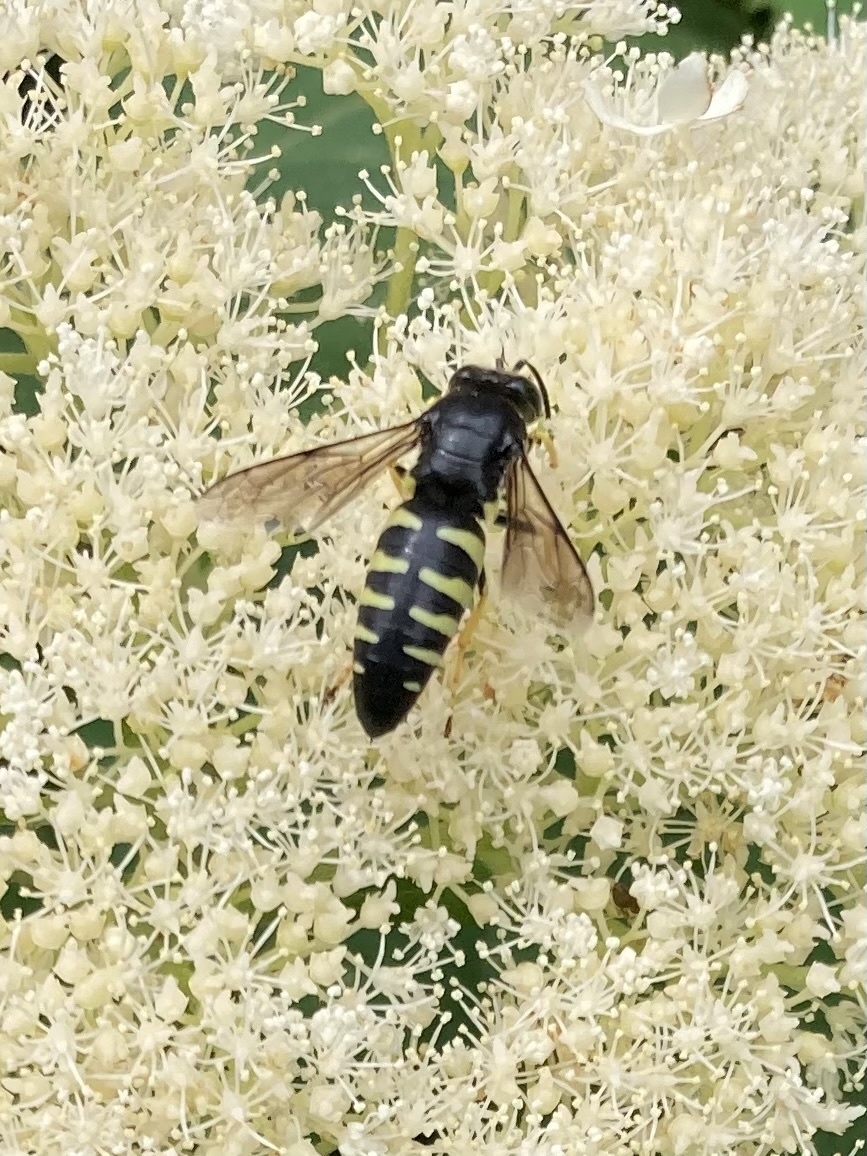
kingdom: Animalia
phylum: Arthropoda
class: Insecta
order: Hymenoptera
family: Crabronidae
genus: Bicyrtes
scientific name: Bicyrtes quadrifasciatus
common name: Four-banded stink bug hunter wasp
